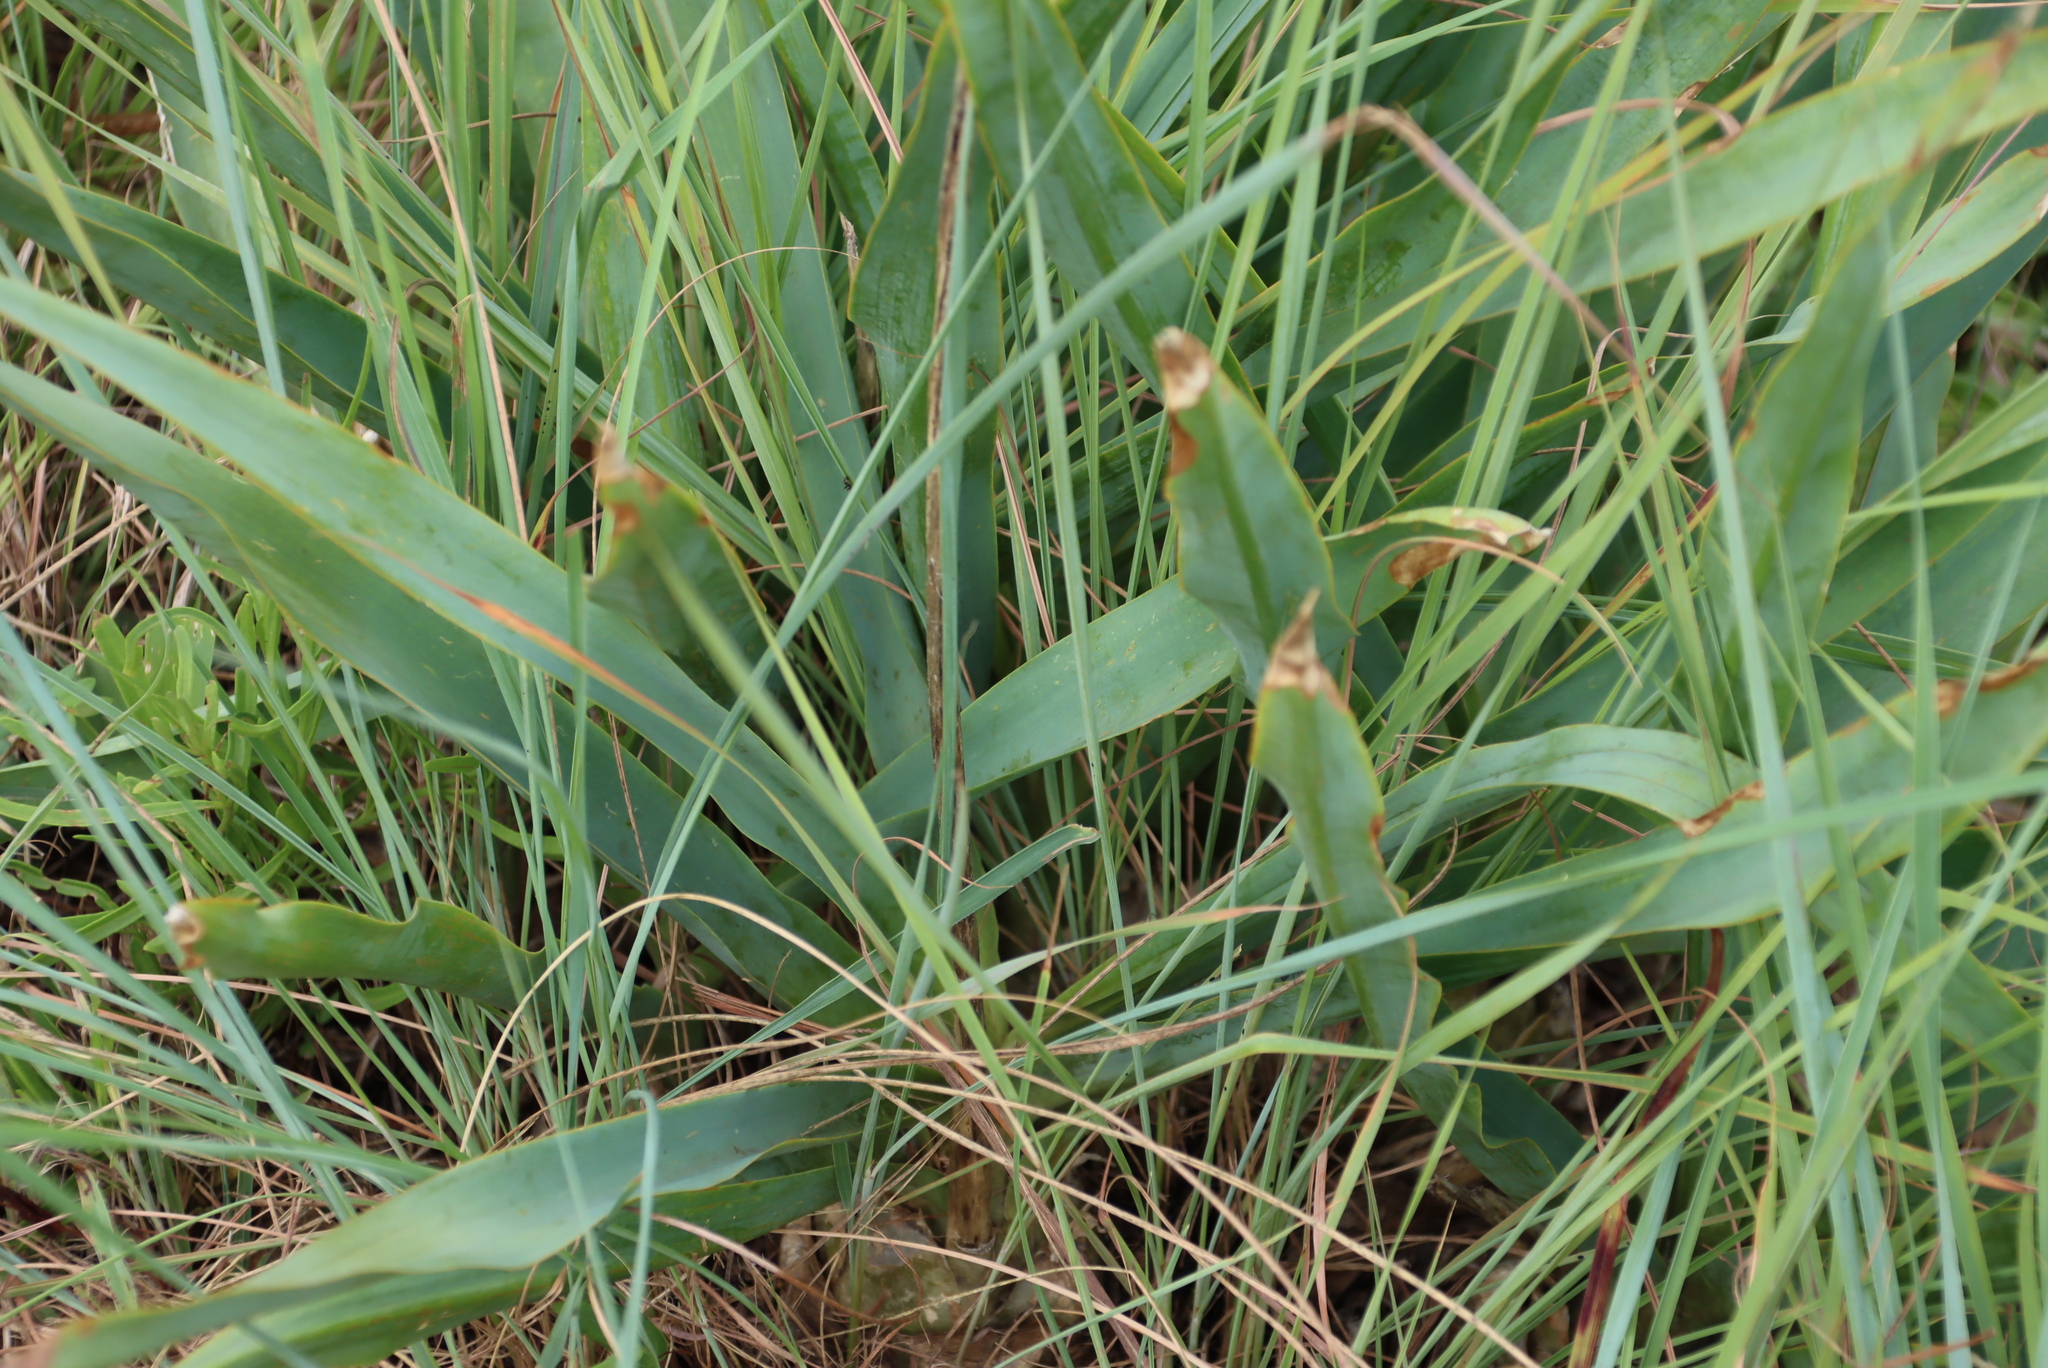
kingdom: Plantae
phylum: Tracheophyta
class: Liliopsida
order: Asparagales
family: Asparagaceae
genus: Drimia
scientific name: Drimia altissima
